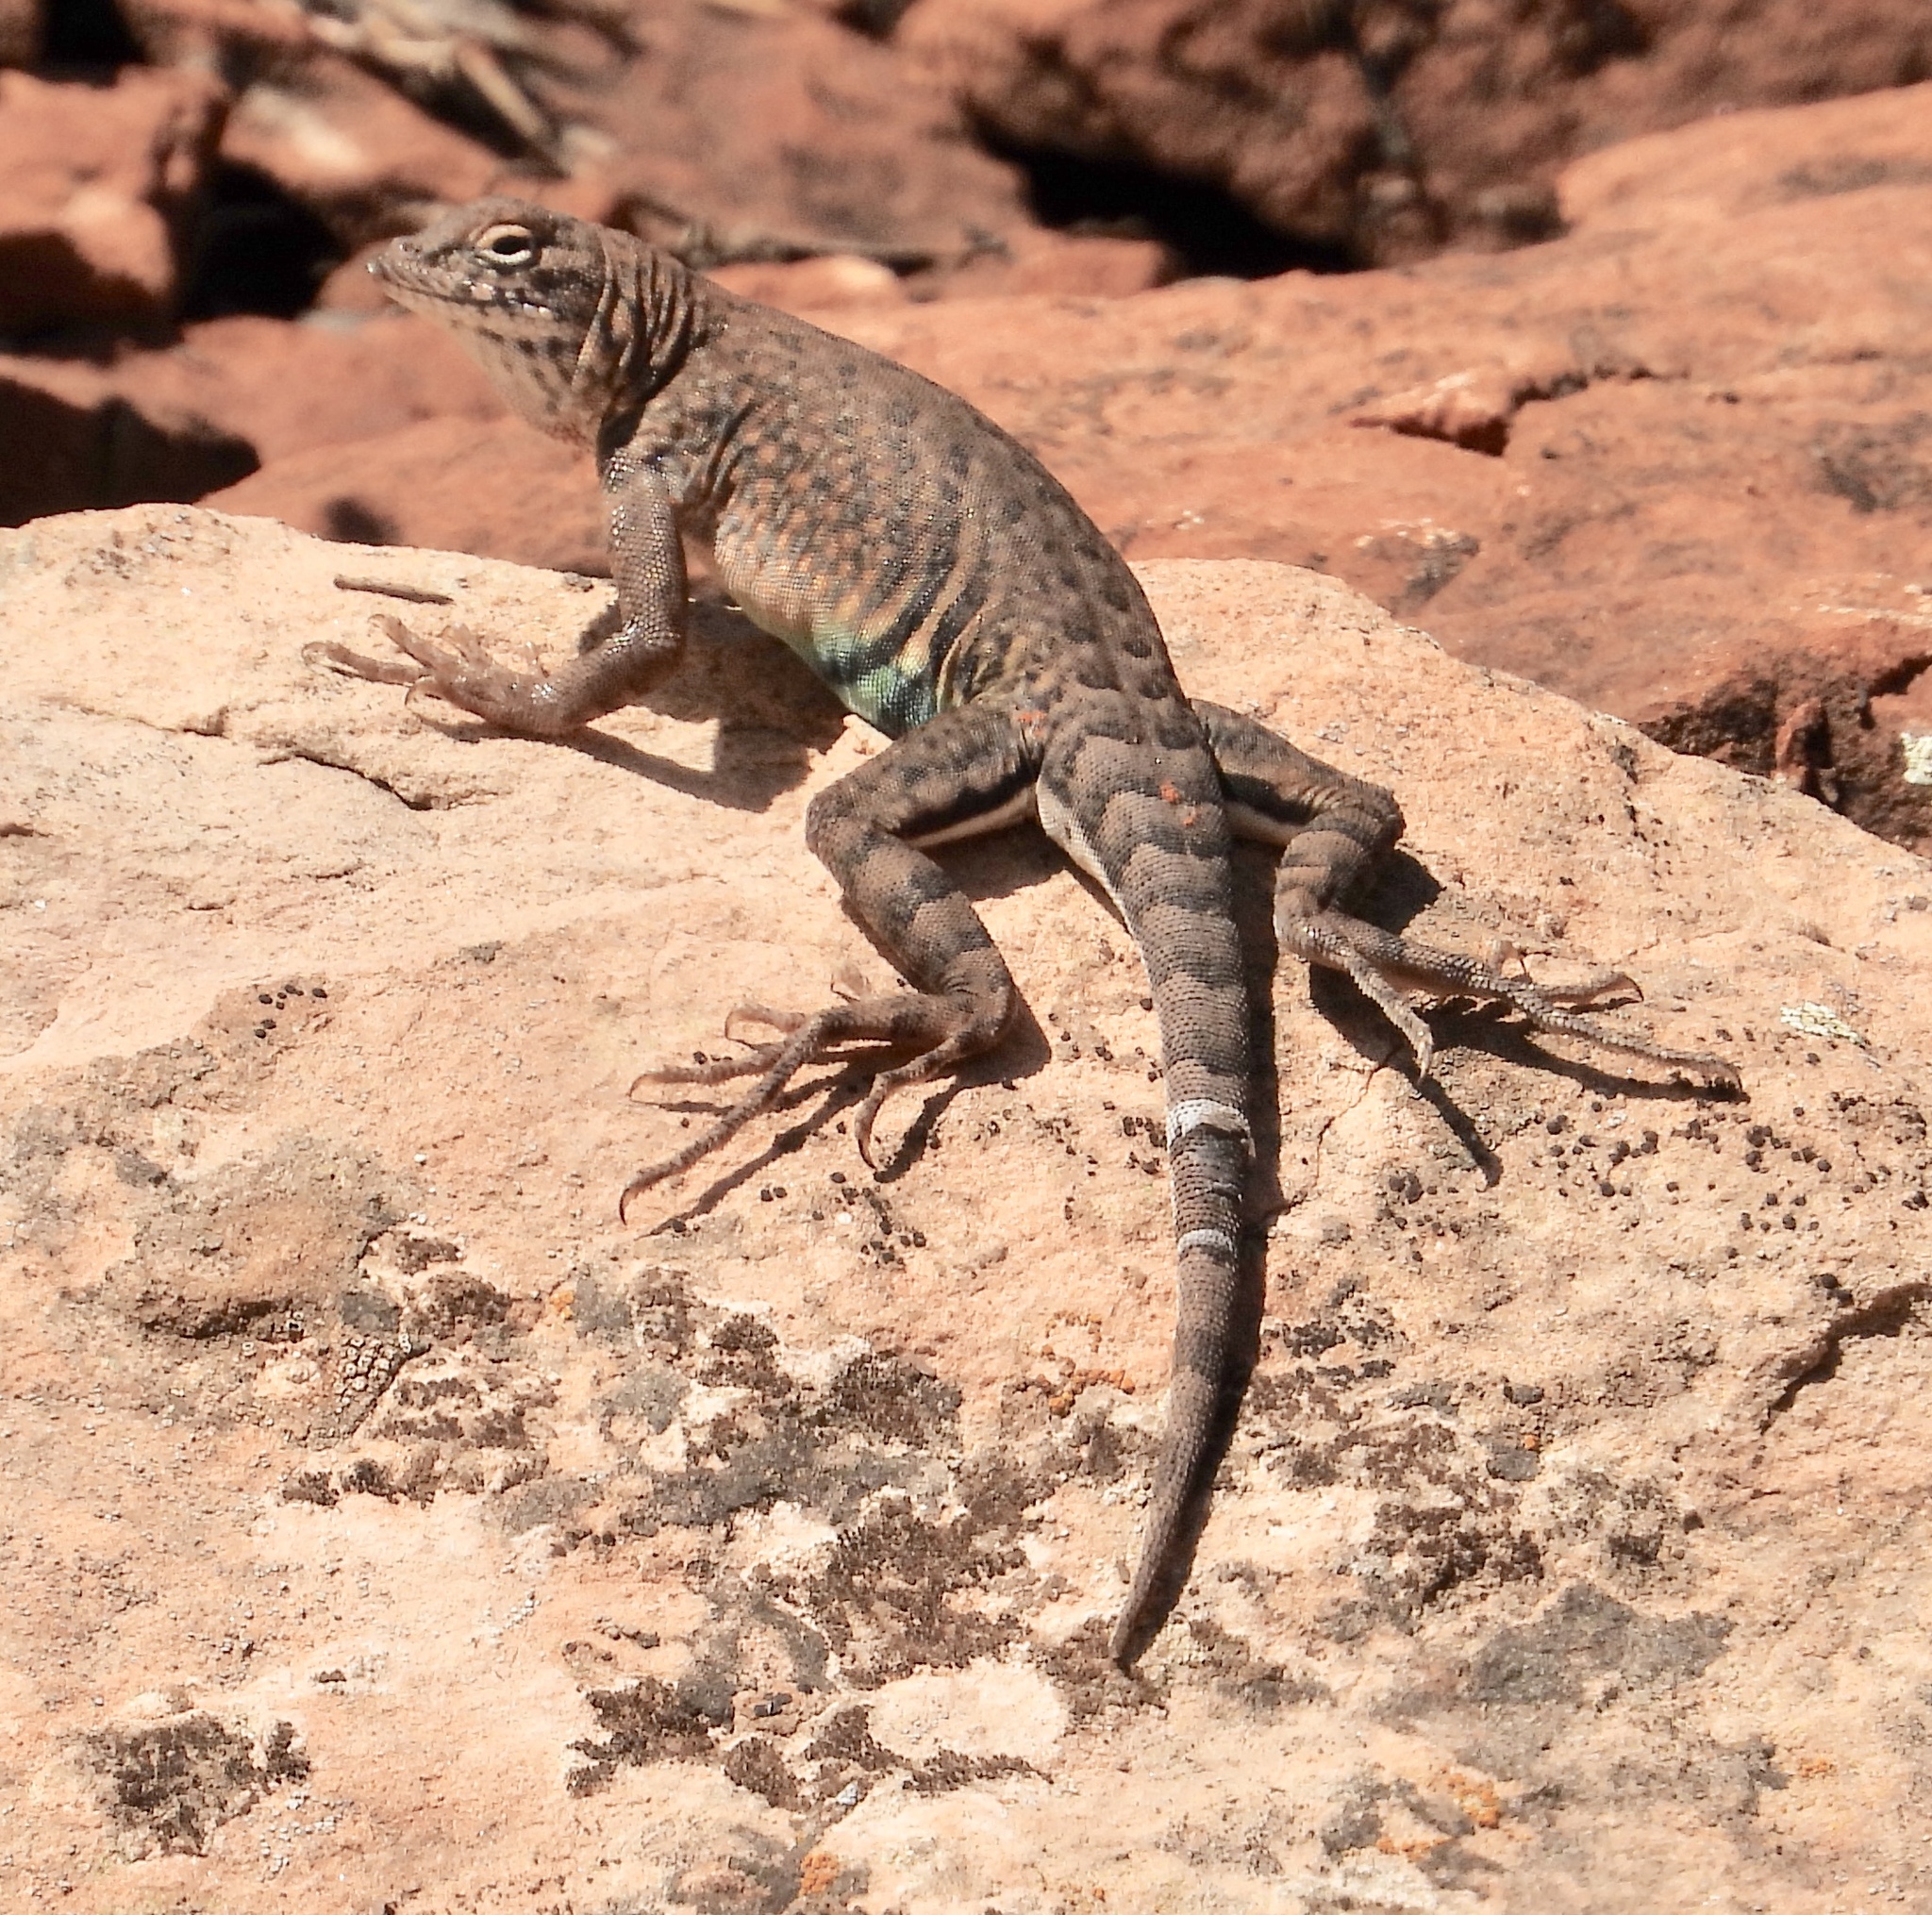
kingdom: Animalia
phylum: Chordata
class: Squamata
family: Phrynosomatidae
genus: Cophosaurus
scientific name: Cophosaurus texanus
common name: Greater earless lizard
